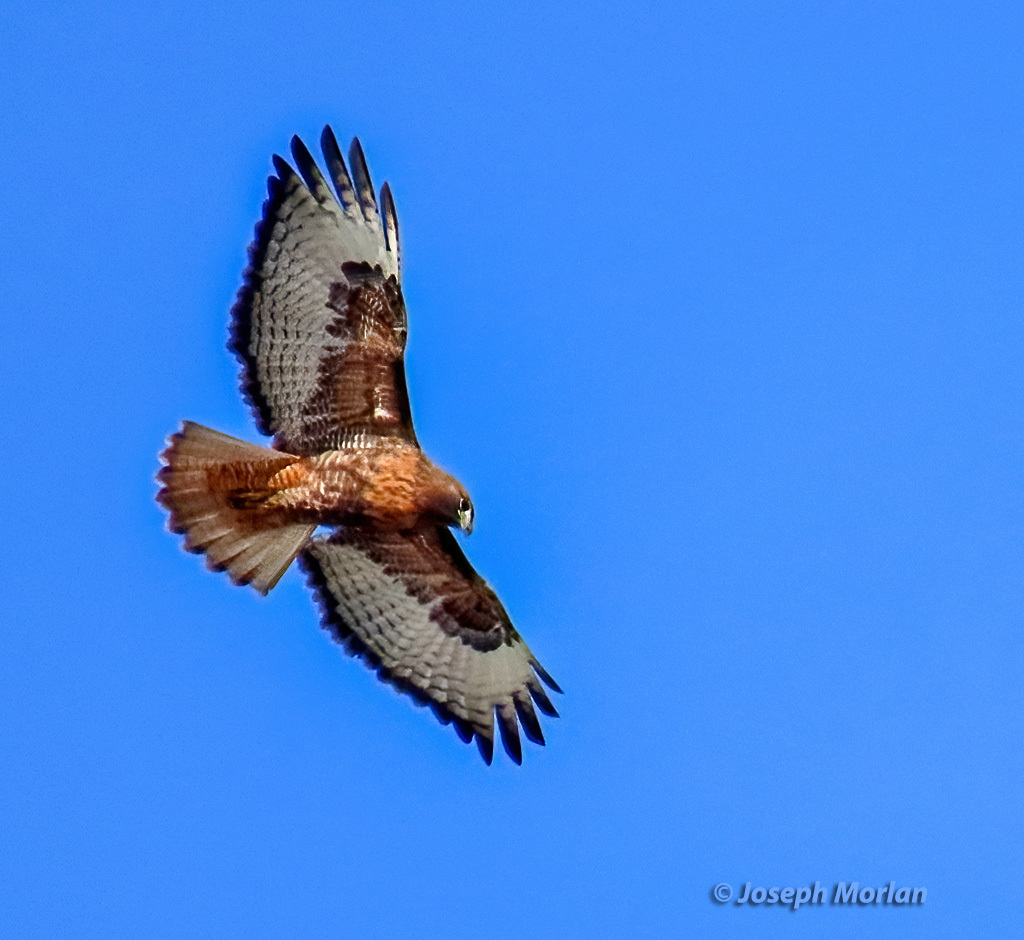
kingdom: Animalia
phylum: Chordata
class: Aves
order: Accipitriformes
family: Accipitridae
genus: Buteo
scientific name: Buteo jamaicensis
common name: Red-tailed hawk
